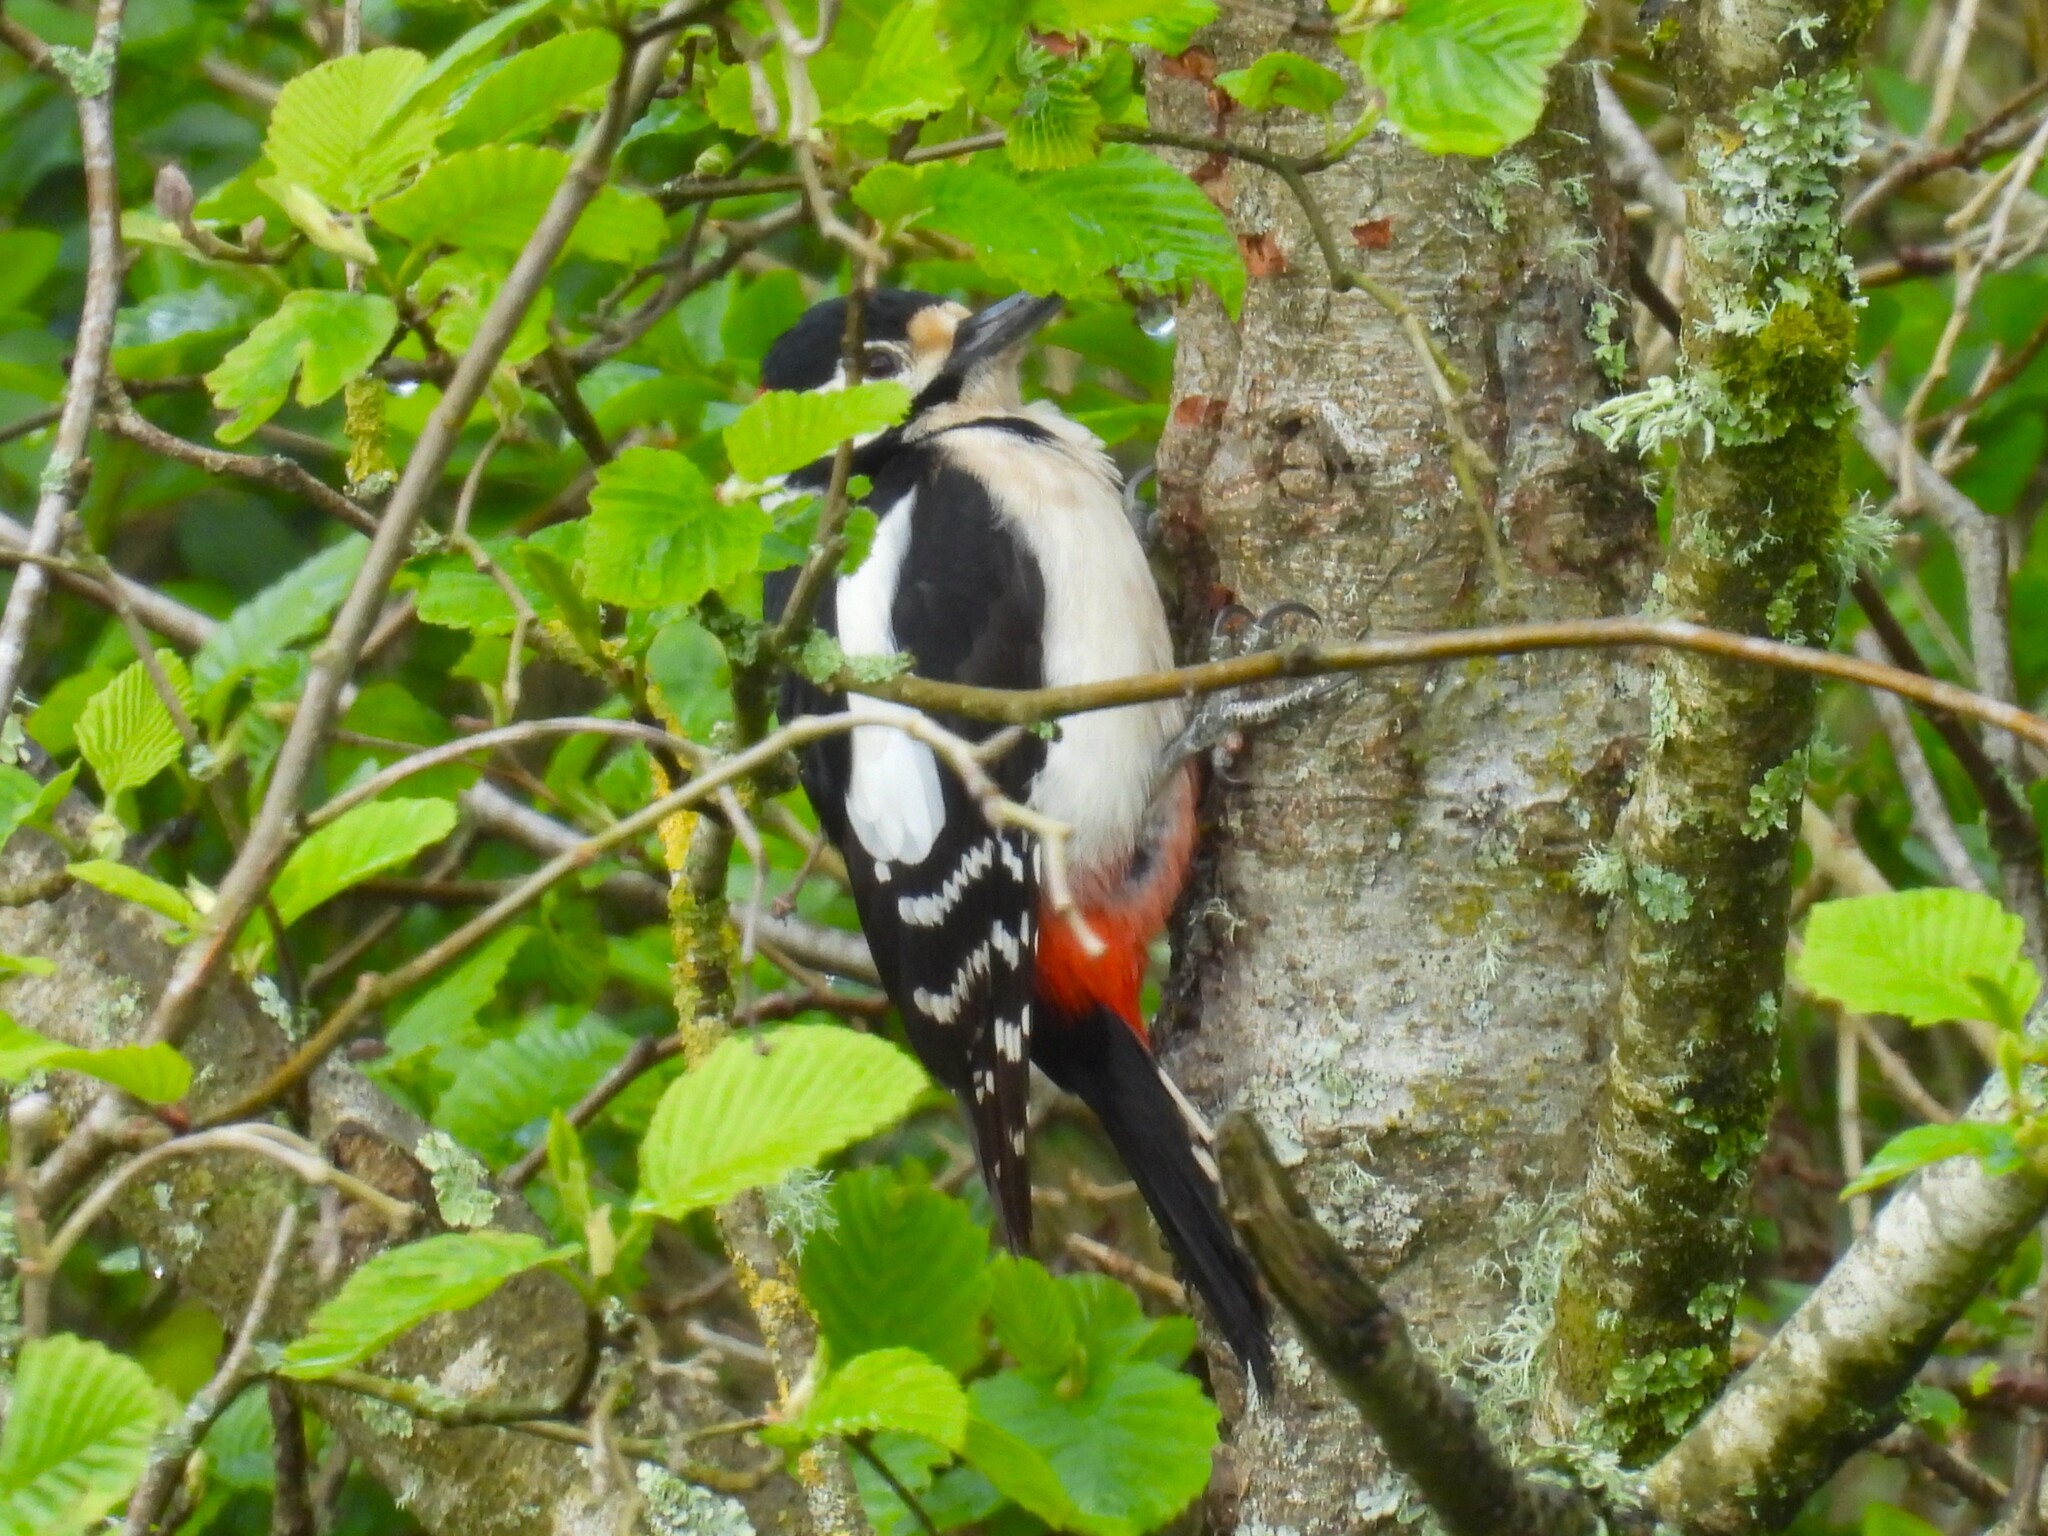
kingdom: Animalia
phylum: Chordata
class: Aves
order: Piciformes
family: Picidae
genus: Dendrocopos
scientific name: Dendrocopos major
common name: Great spotted woodpecker
